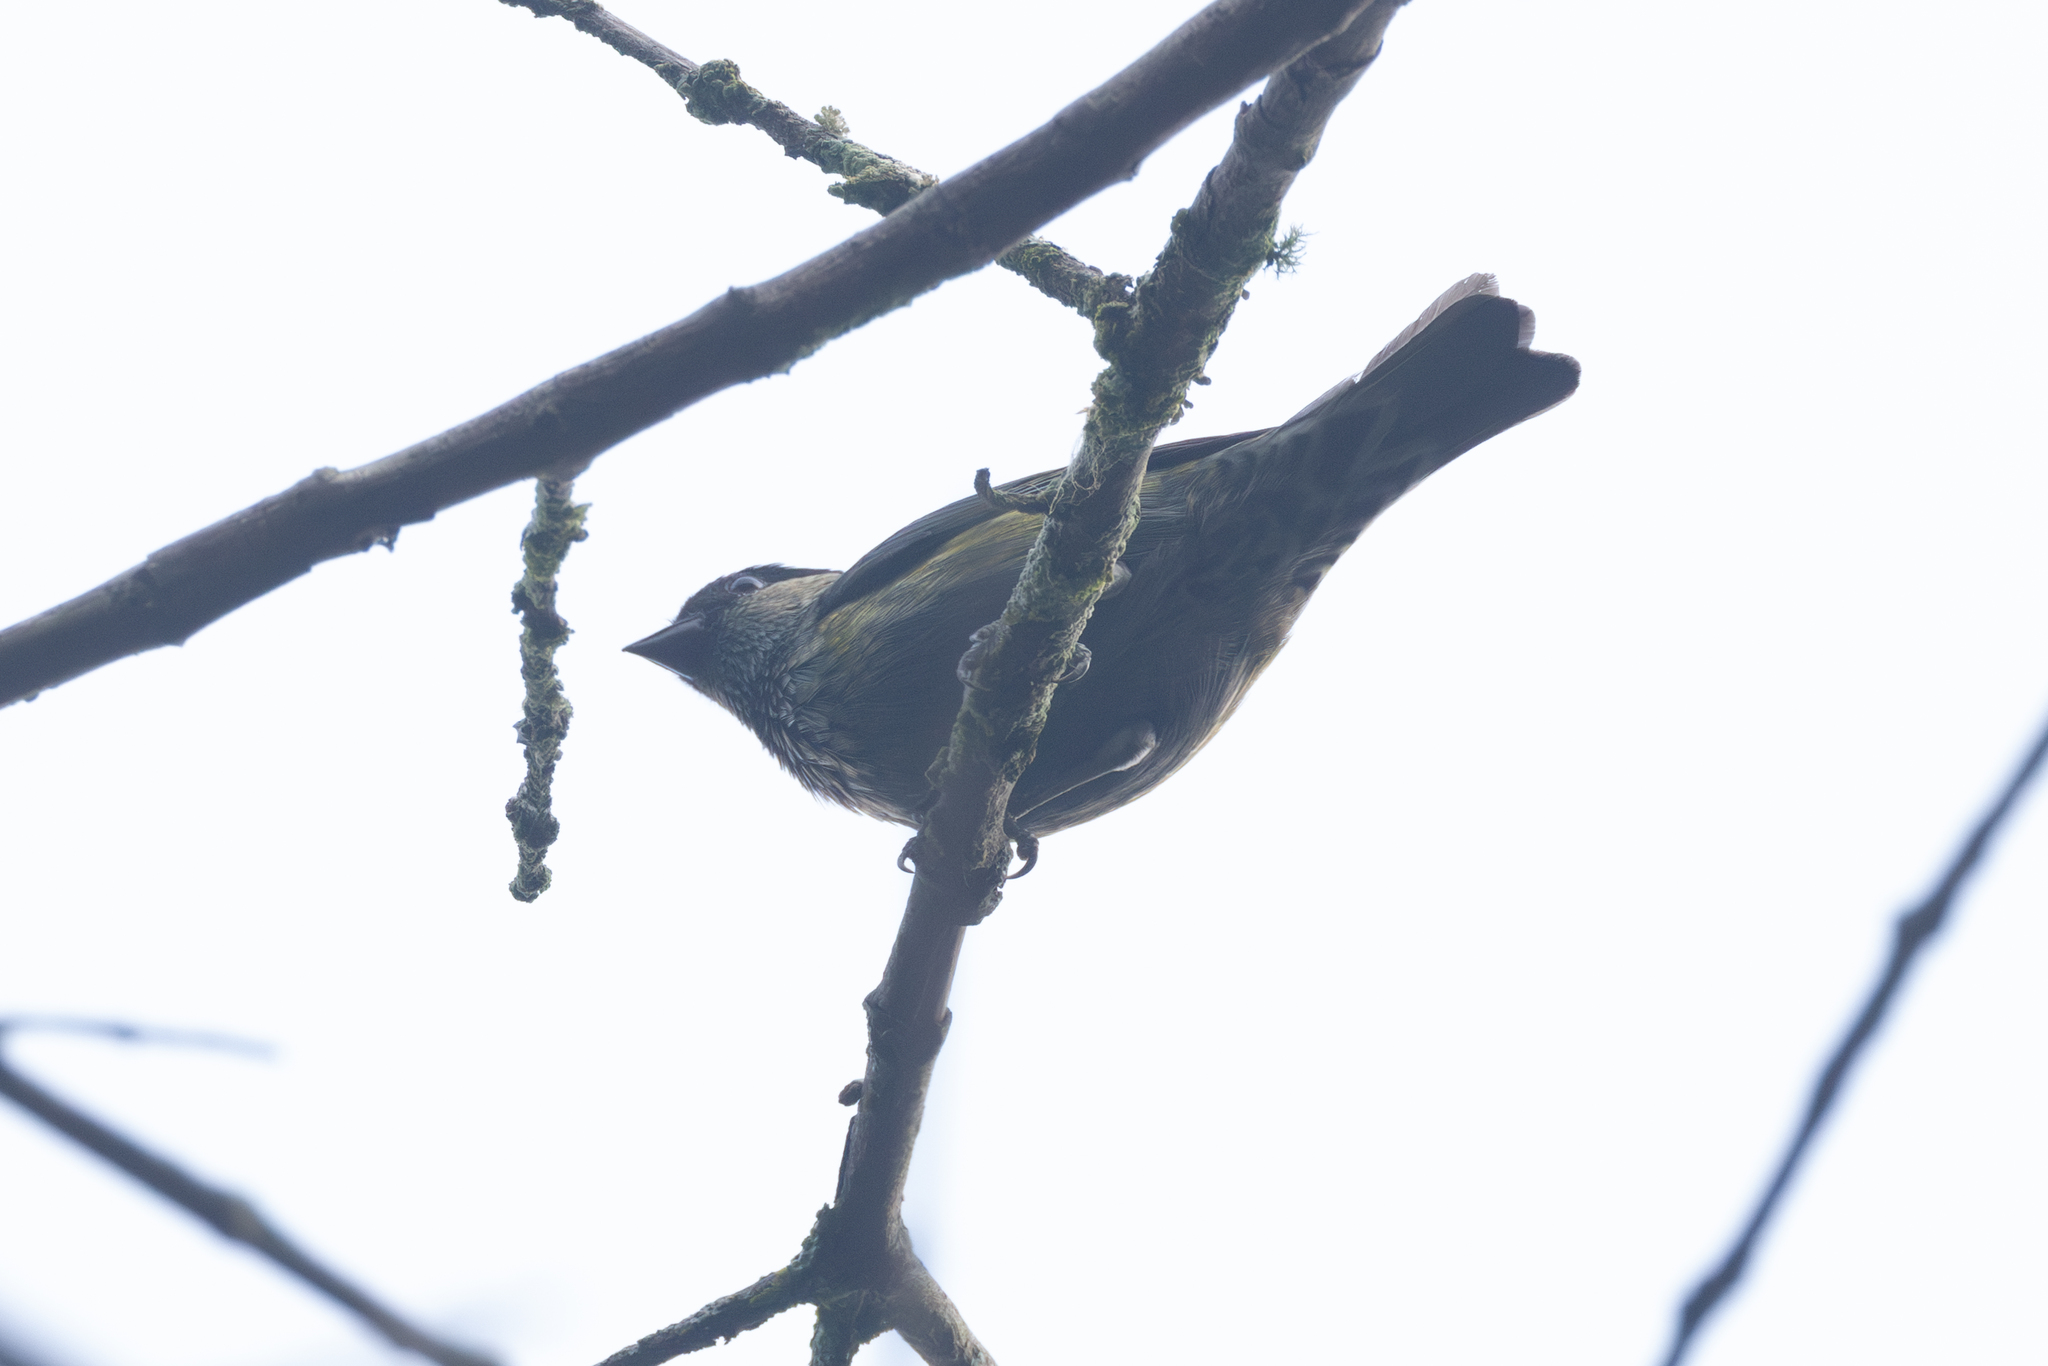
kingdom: Animalia
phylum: Chordata
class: Aves
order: Passeriformes
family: Thraupidae
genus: Stilpnia
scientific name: Stilpnia heinei
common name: Black-capped tanager
